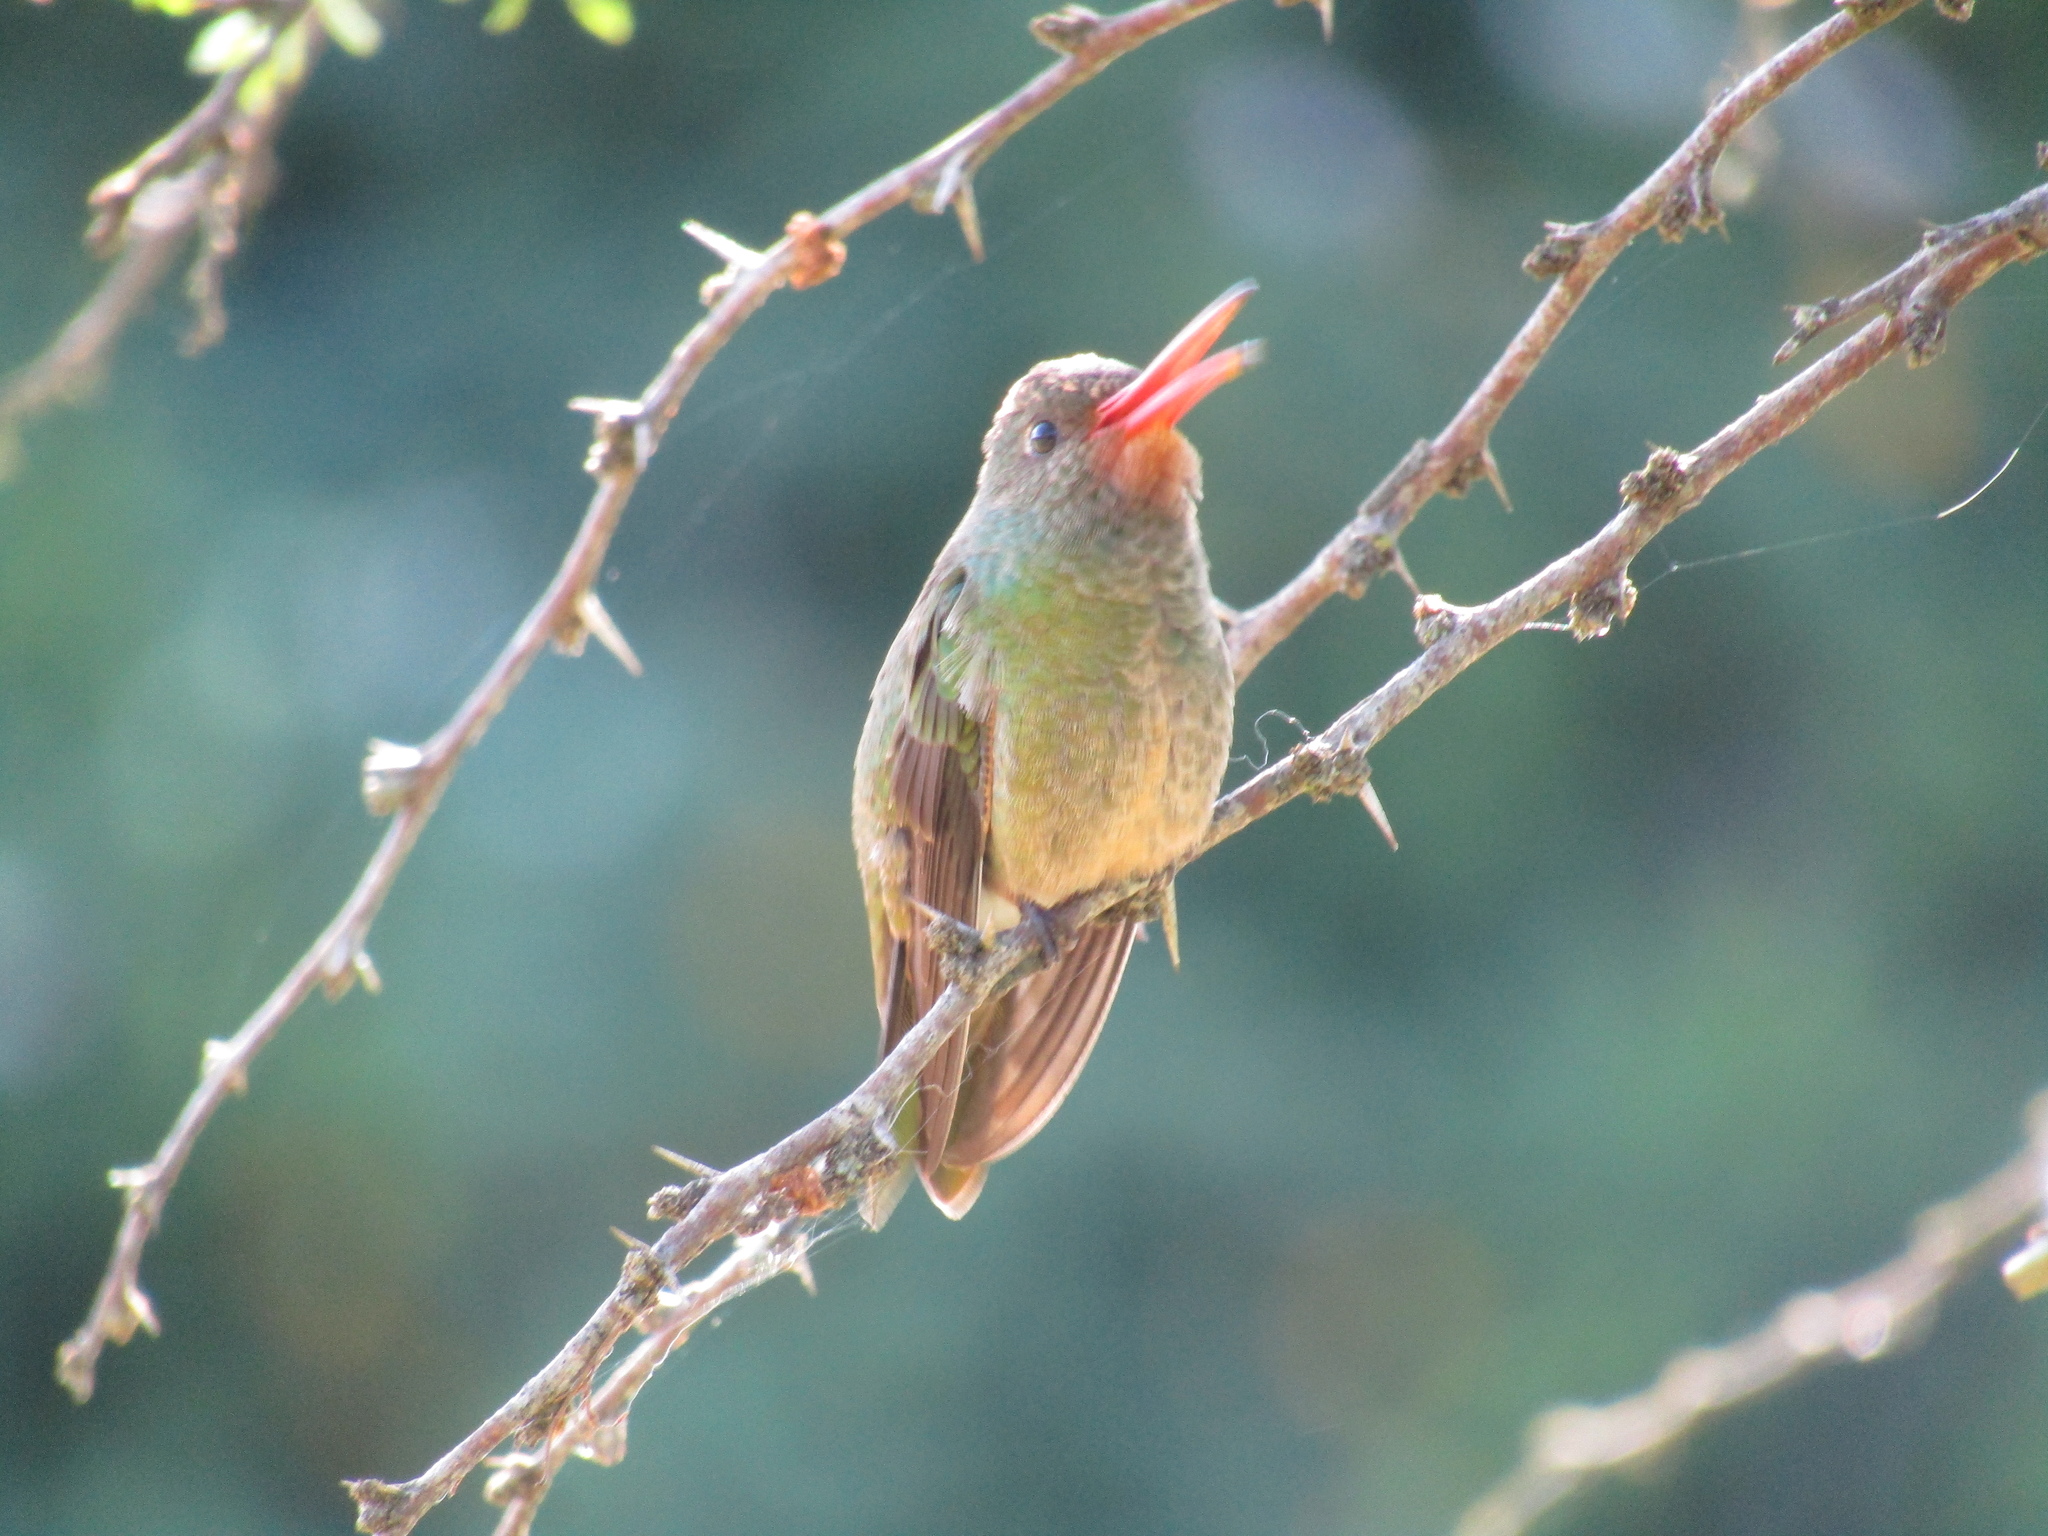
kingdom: Animalia
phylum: Chordata
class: Aves
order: Apodiformes
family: Trochilidae
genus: Hylocharis
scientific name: Hylocharis chrysura
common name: Gilded sapphire
